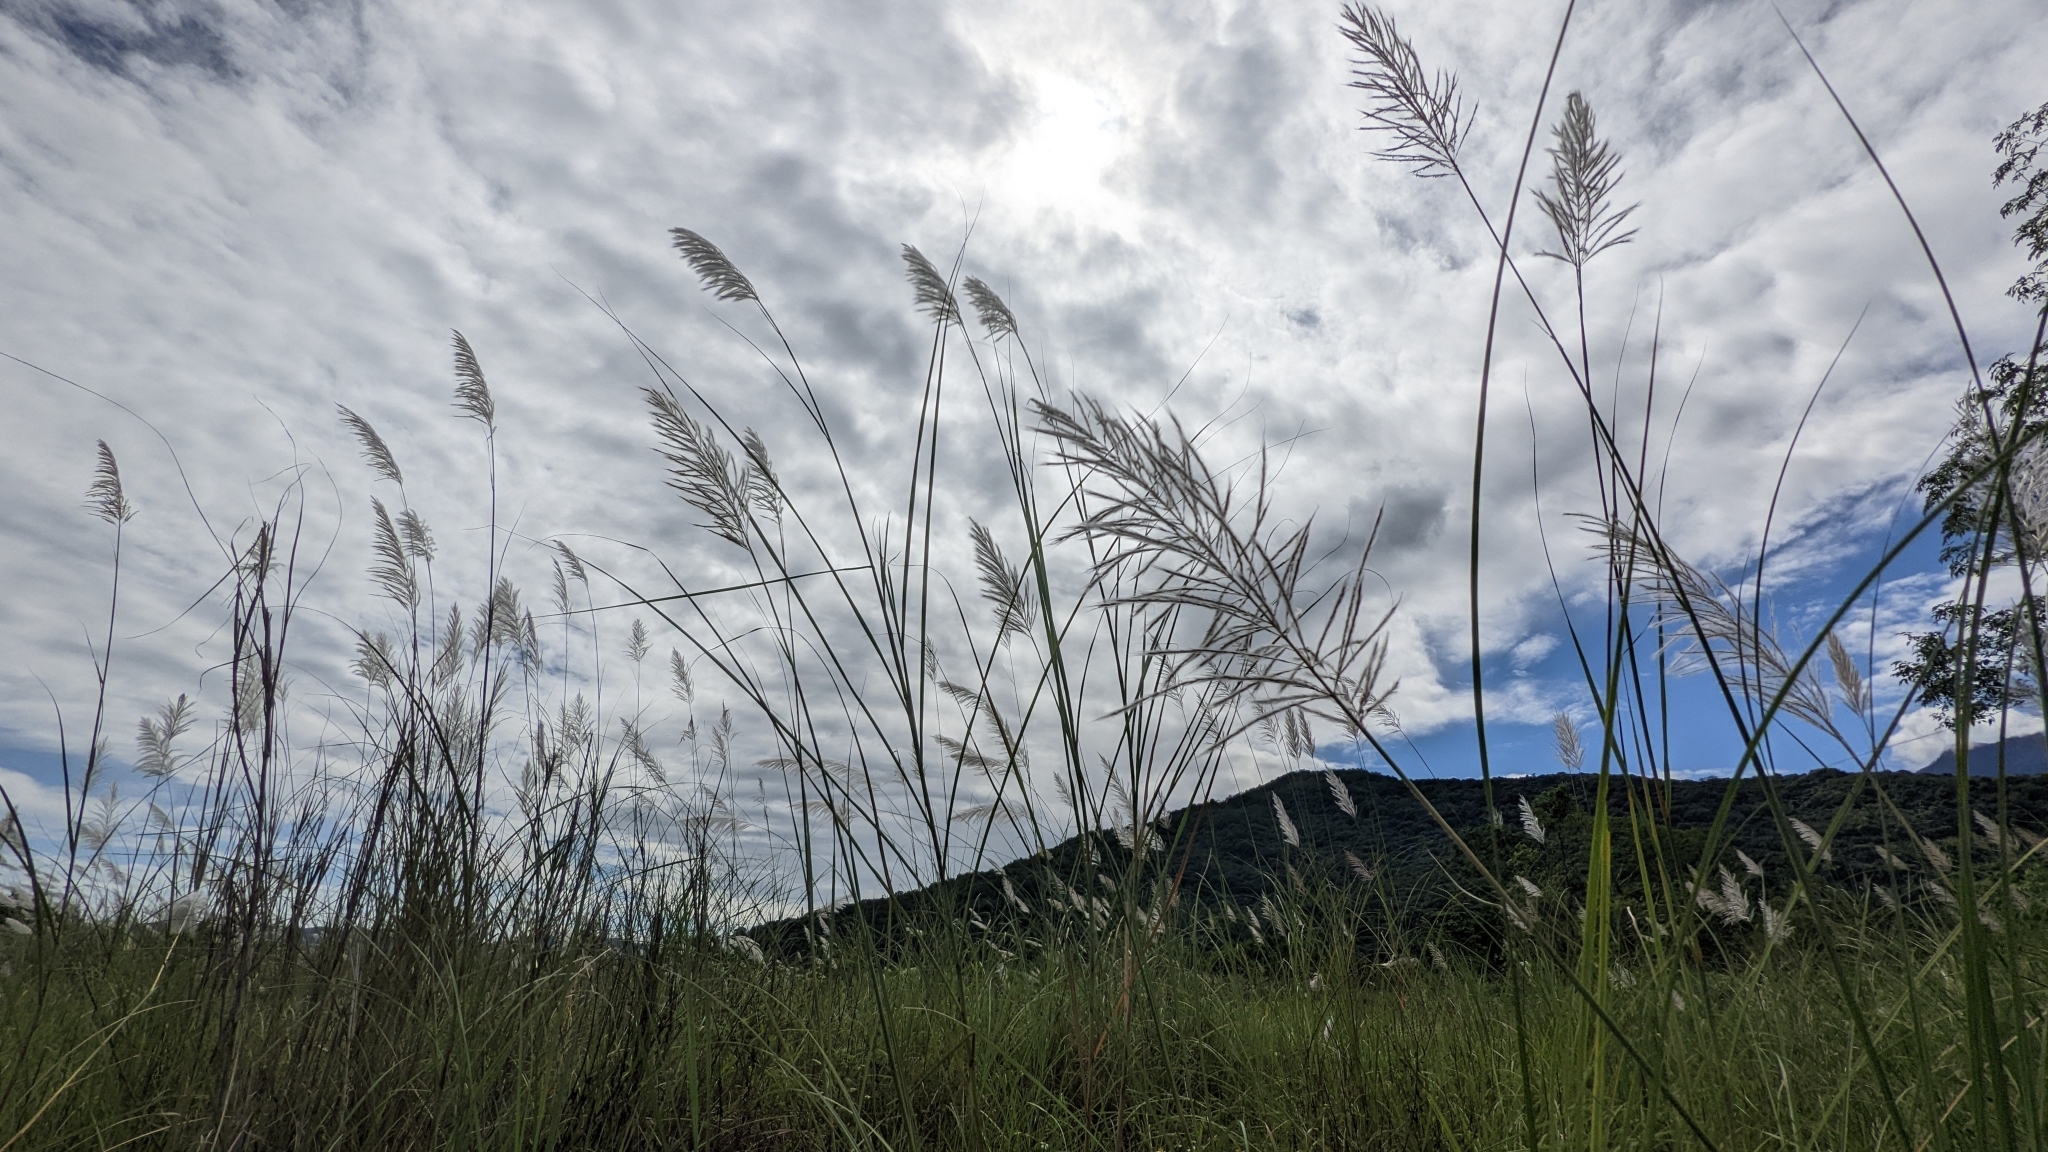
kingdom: Plantae
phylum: Tracheophyta
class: Liliopsida
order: Poales
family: Poaceae
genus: Saccharum
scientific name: Saccharum spontaneum
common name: Wild sugarcane
